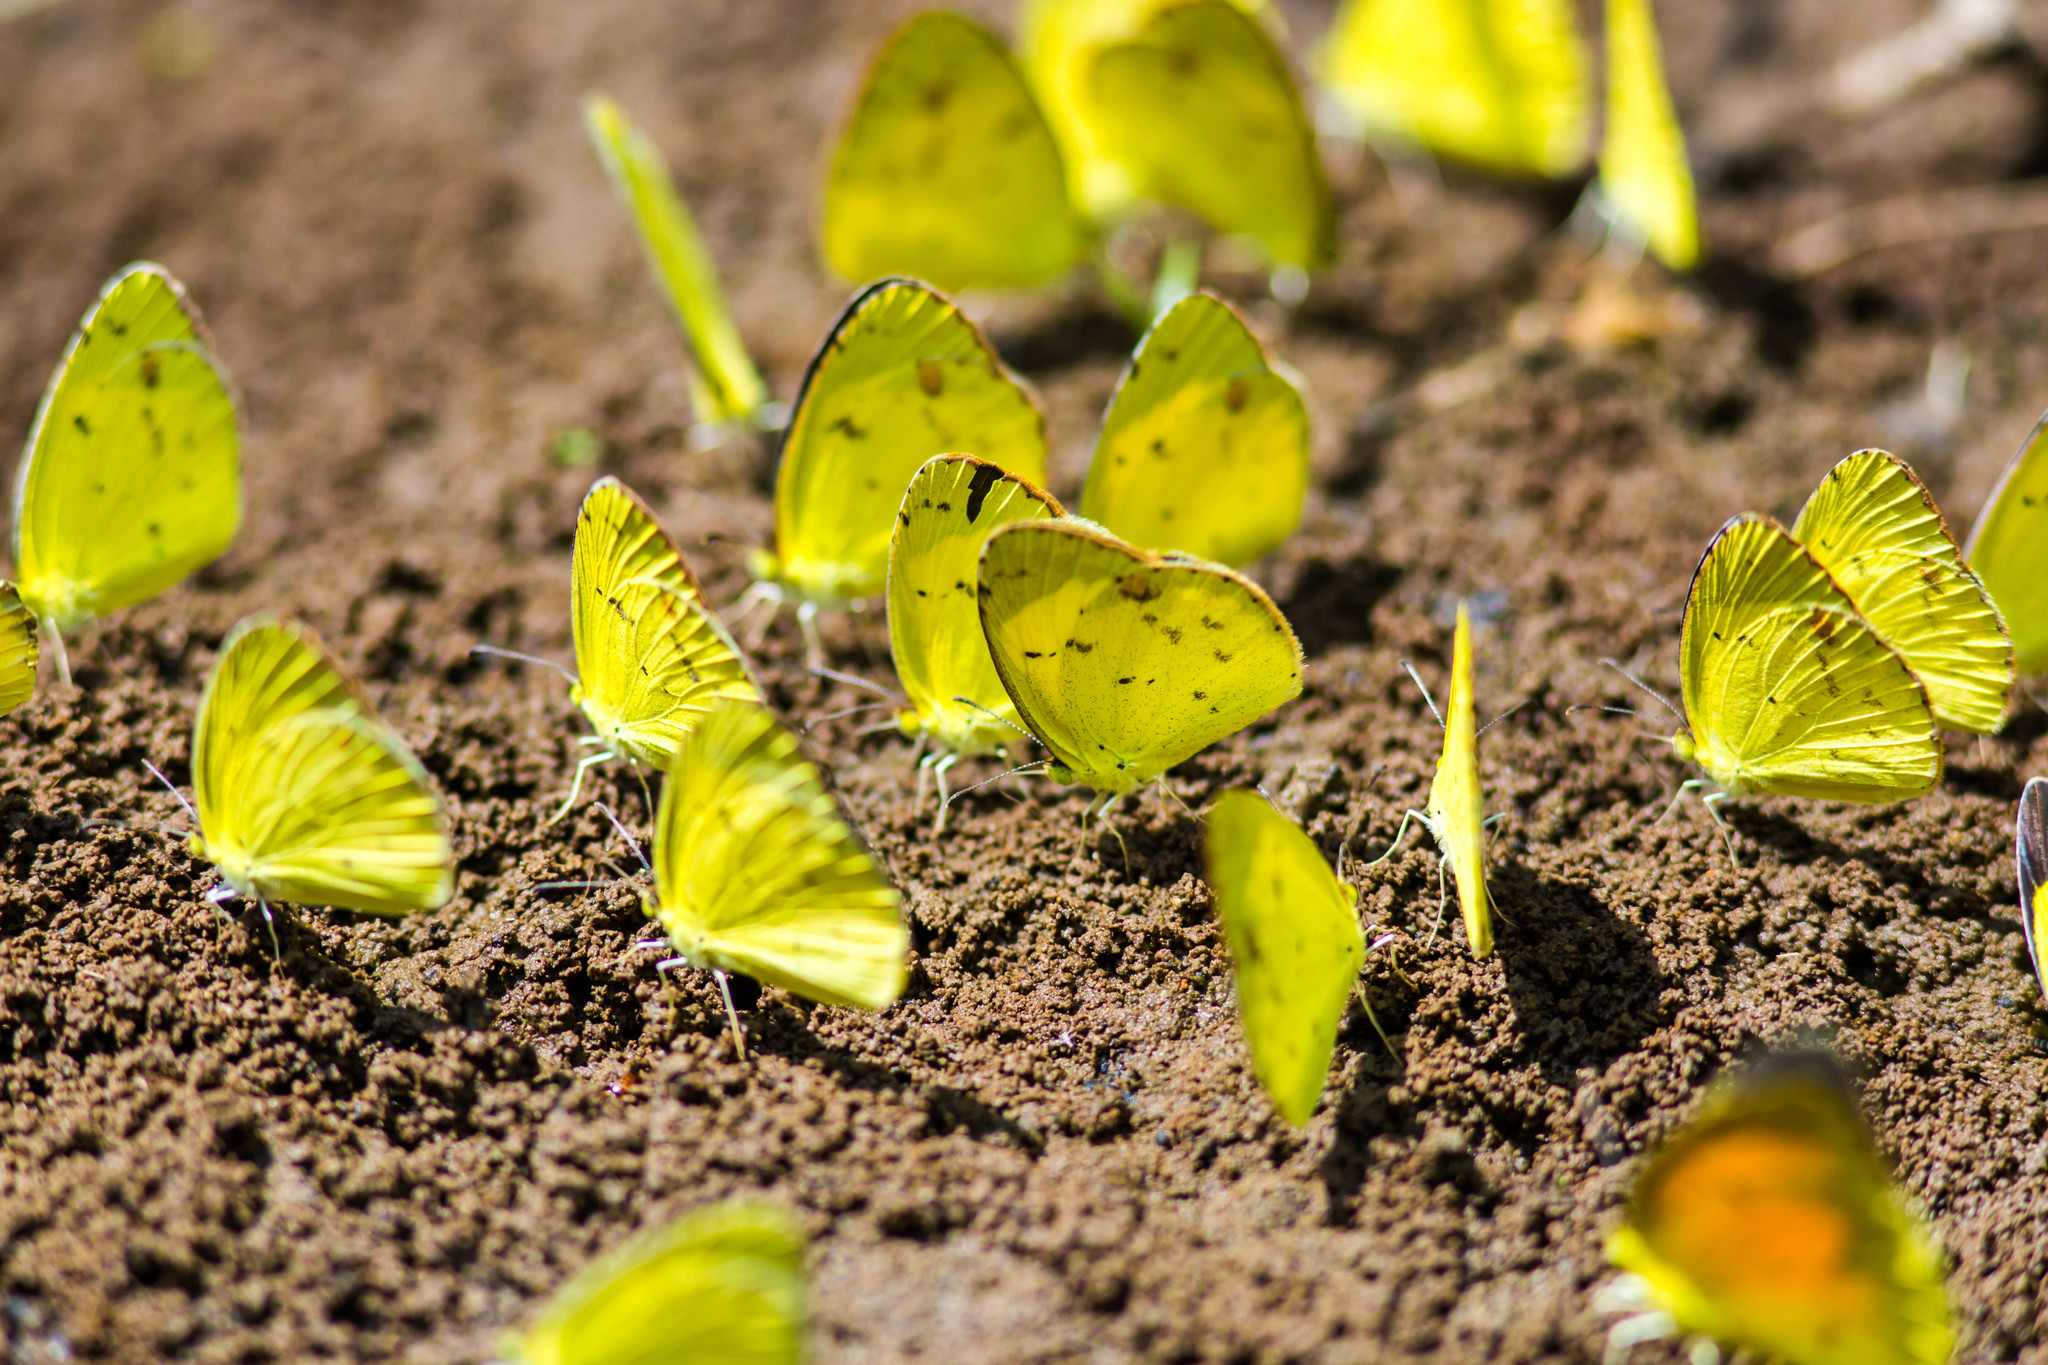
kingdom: Animalia
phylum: Arthropoda
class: Insecta
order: Lepidoptera
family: Pieridae
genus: Pyrisitia
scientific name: Pyrisitia lisa
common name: Little yellow
